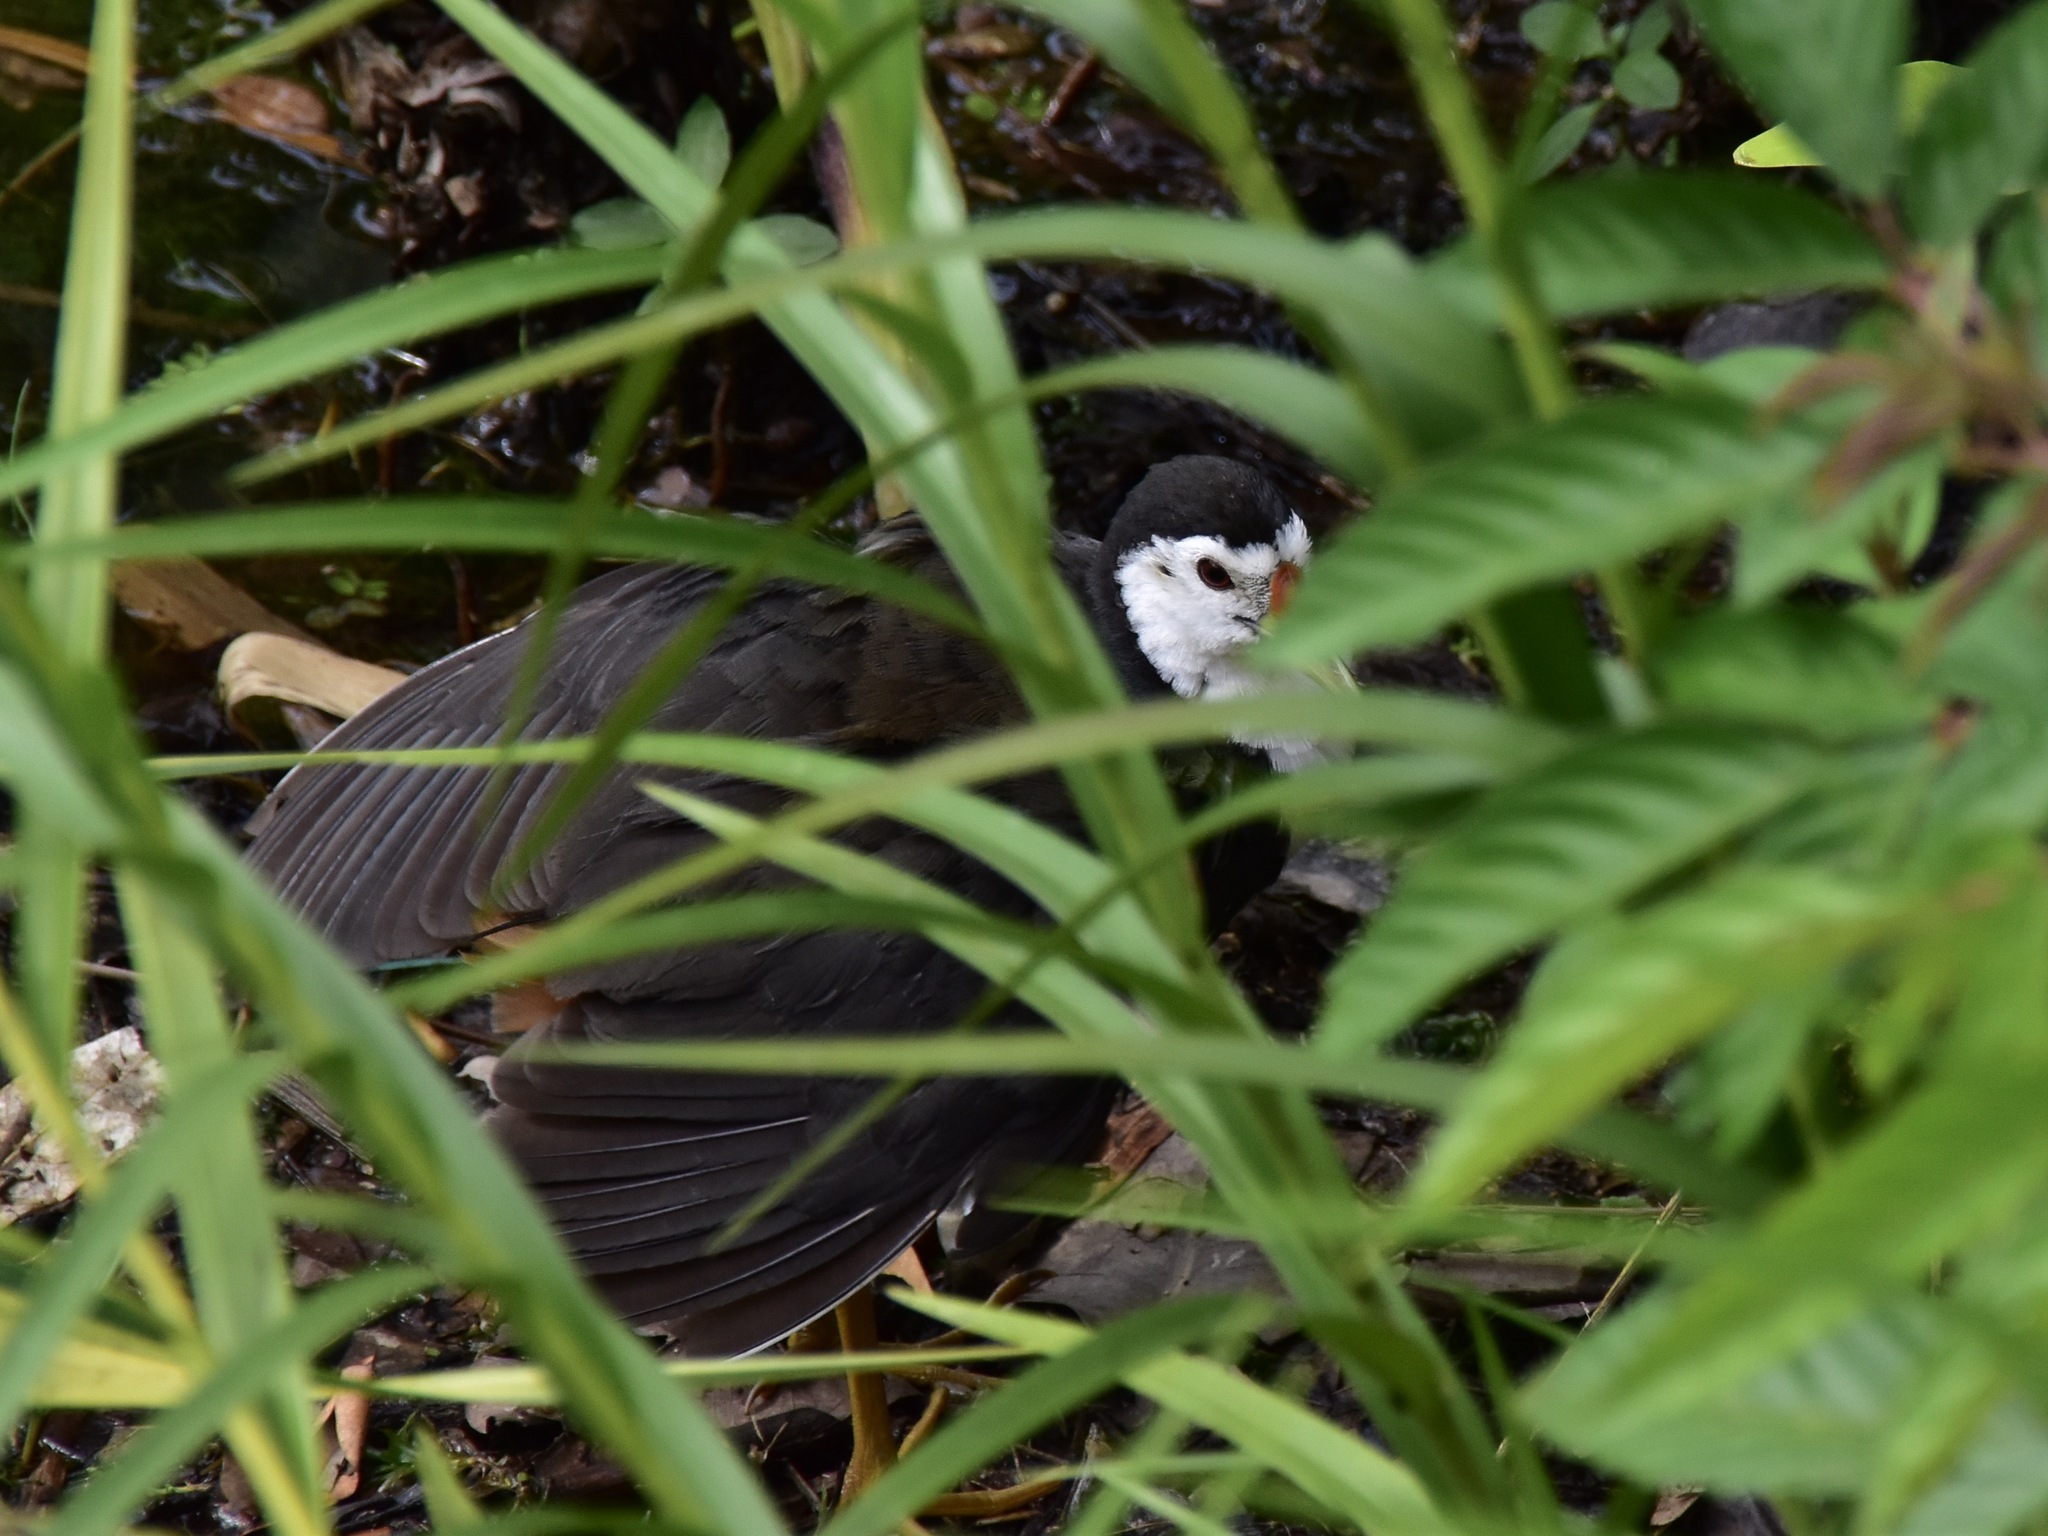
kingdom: Animalia
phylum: Chordata
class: Aves
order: Gruiformes
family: Rallidae
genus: Amaurornis
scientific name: Amaurornis phoenicurus
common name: White-breasted waterhen
